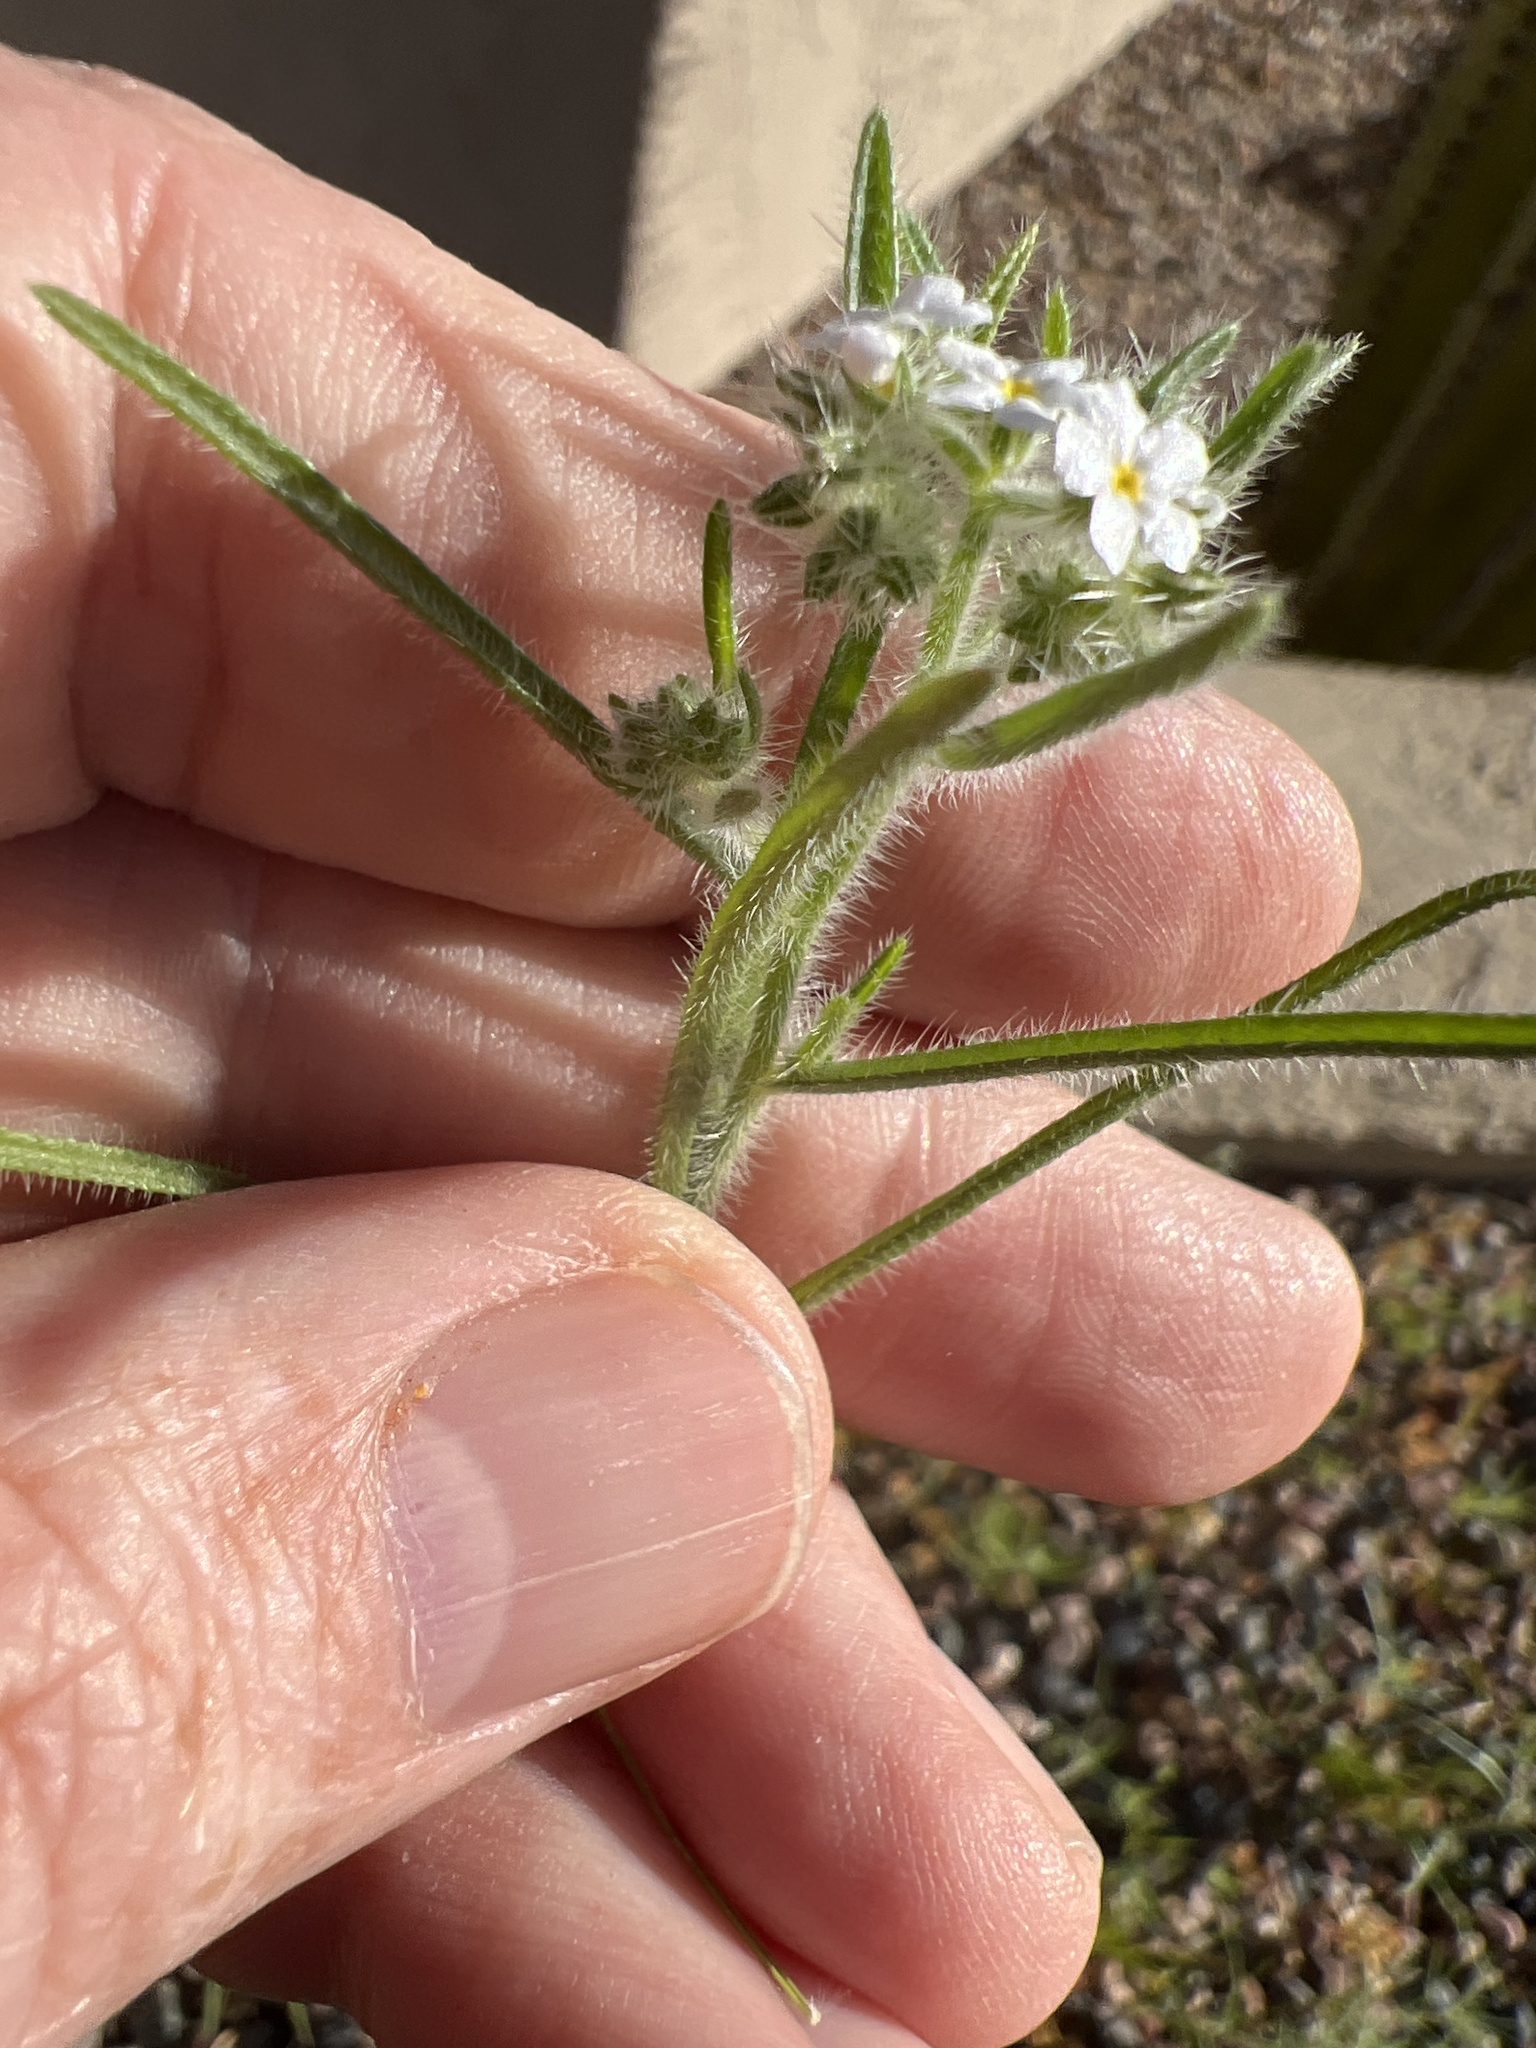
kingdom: Plantae
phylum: Tracheophyta
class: Magnoliopsida
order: Boraginales
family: Boraginaceae
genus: Johnstonella
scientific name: Johnstonella angustifolia
